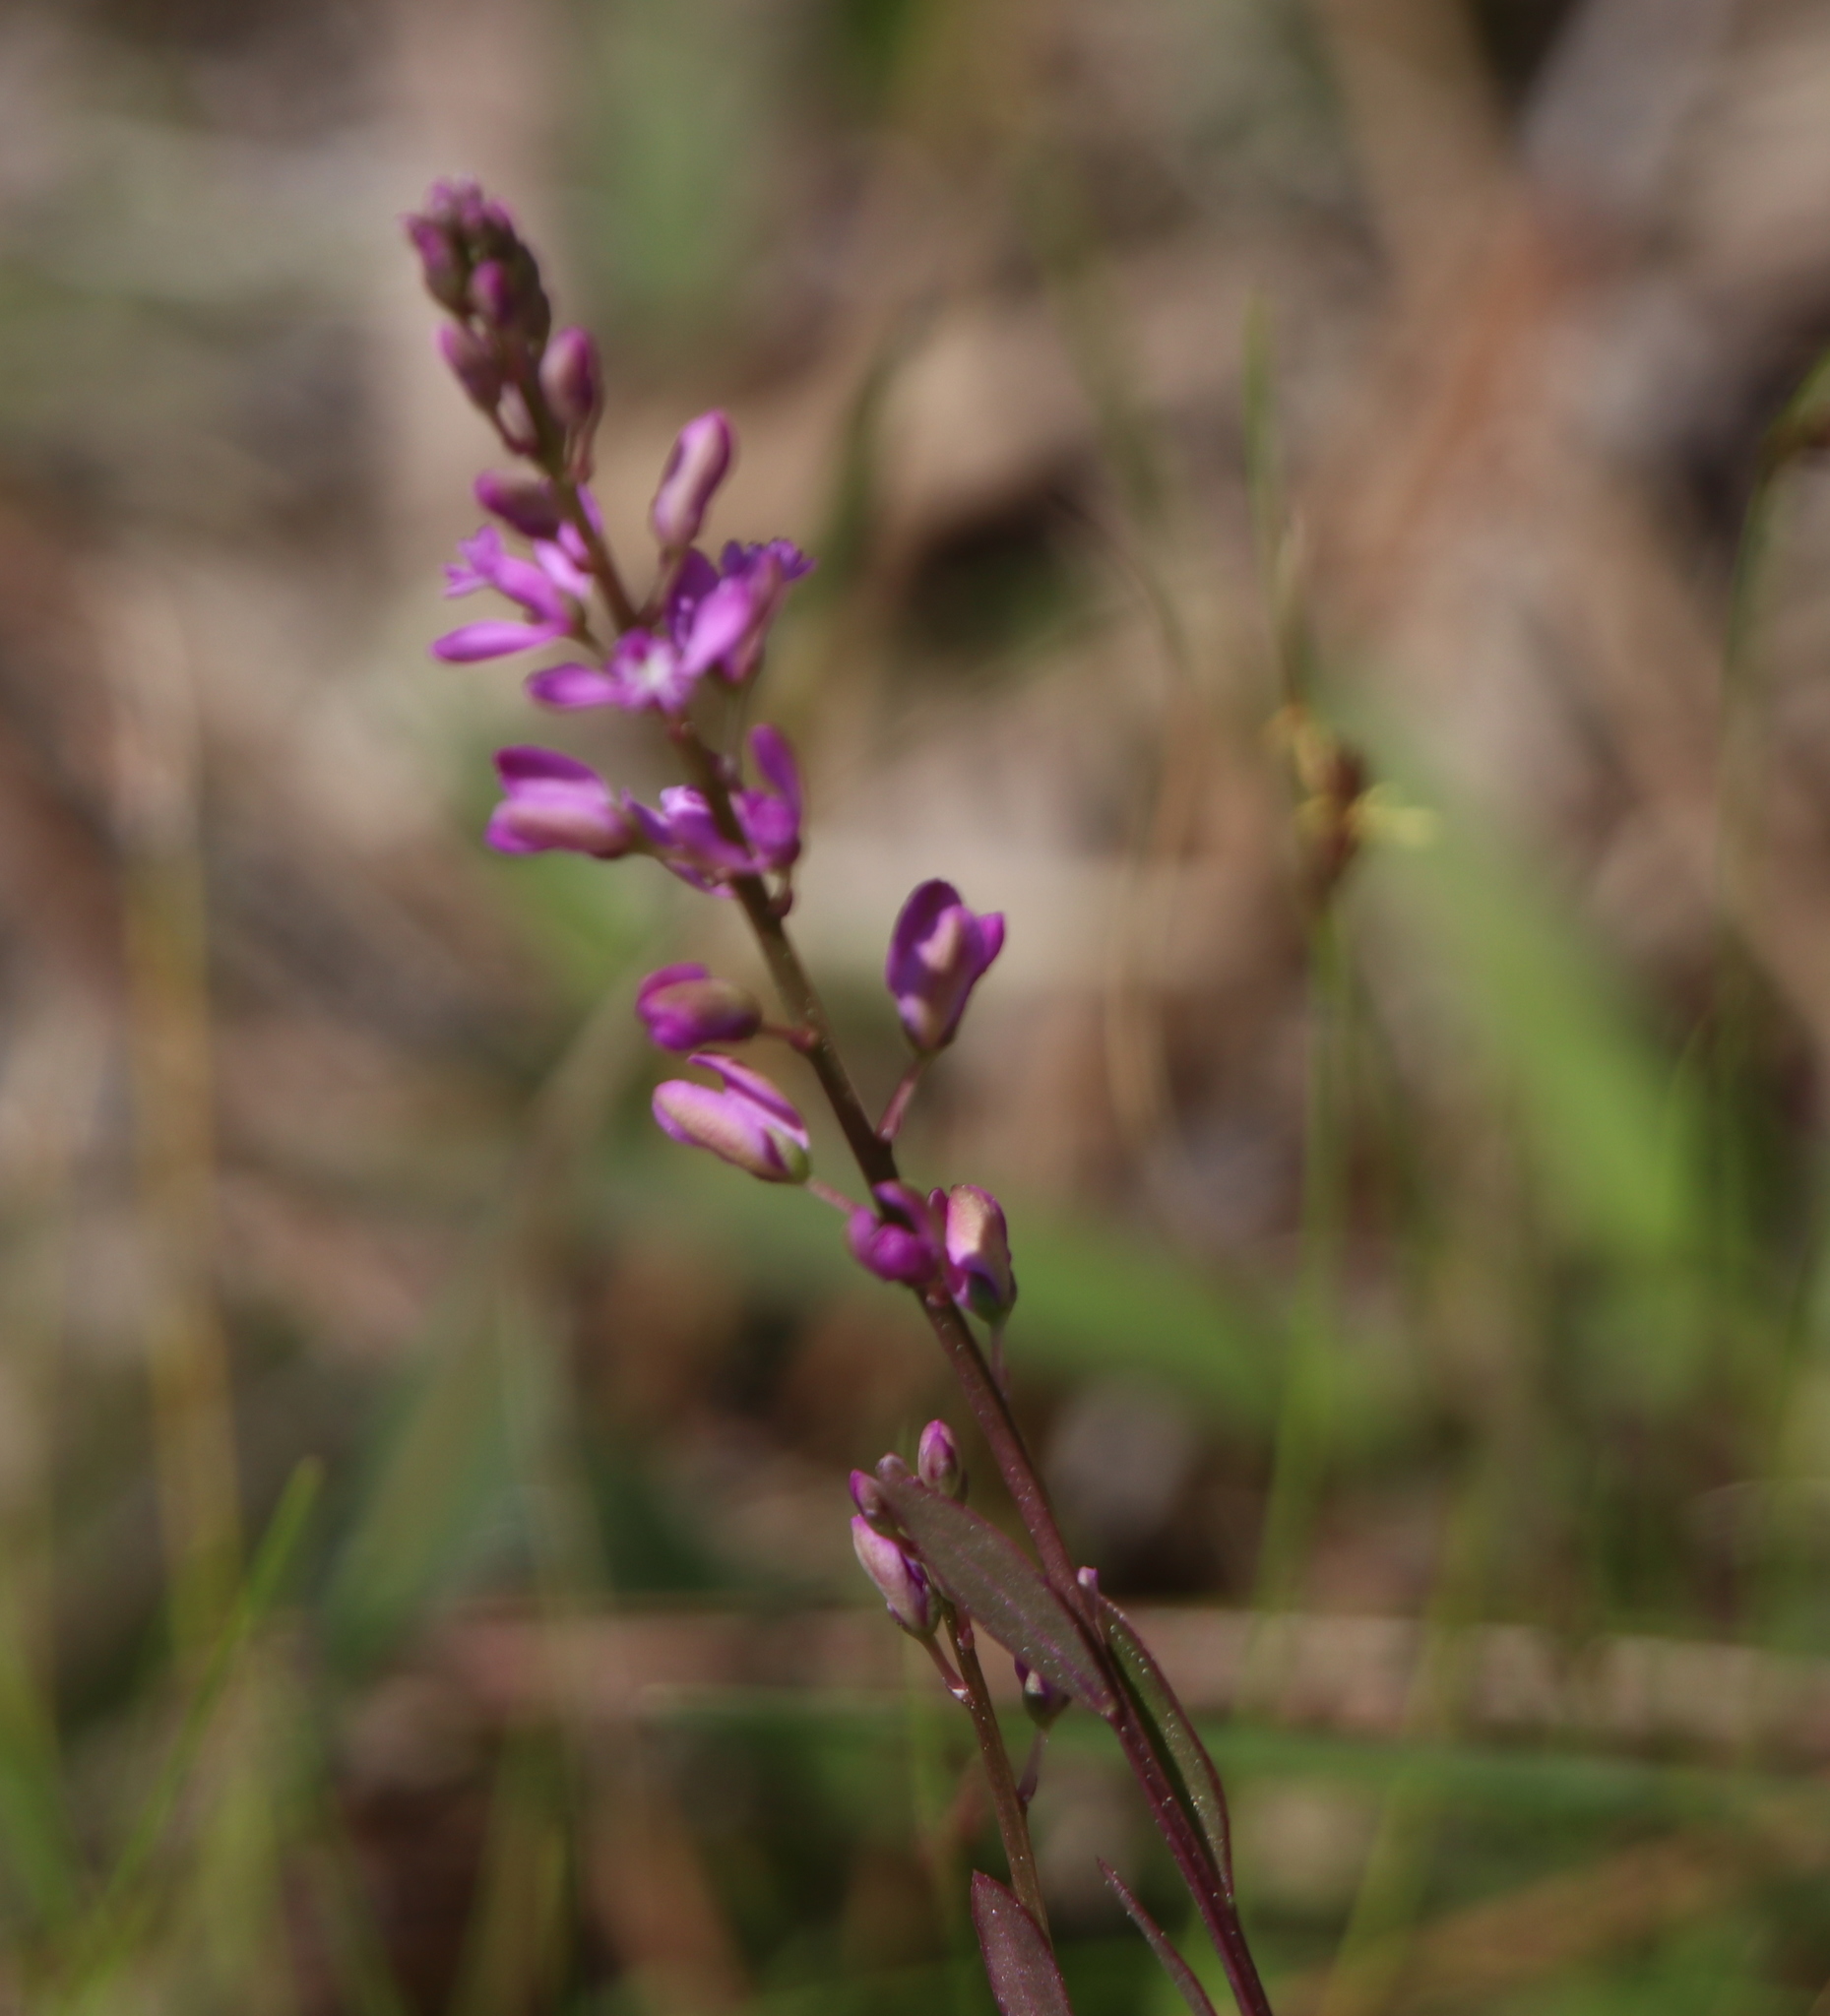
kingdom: Plantae
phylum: Tracheophyta
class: Magnoliopsida
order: Fabales
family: Polygalaceae
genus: Polygala
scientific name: Polygala crenata
